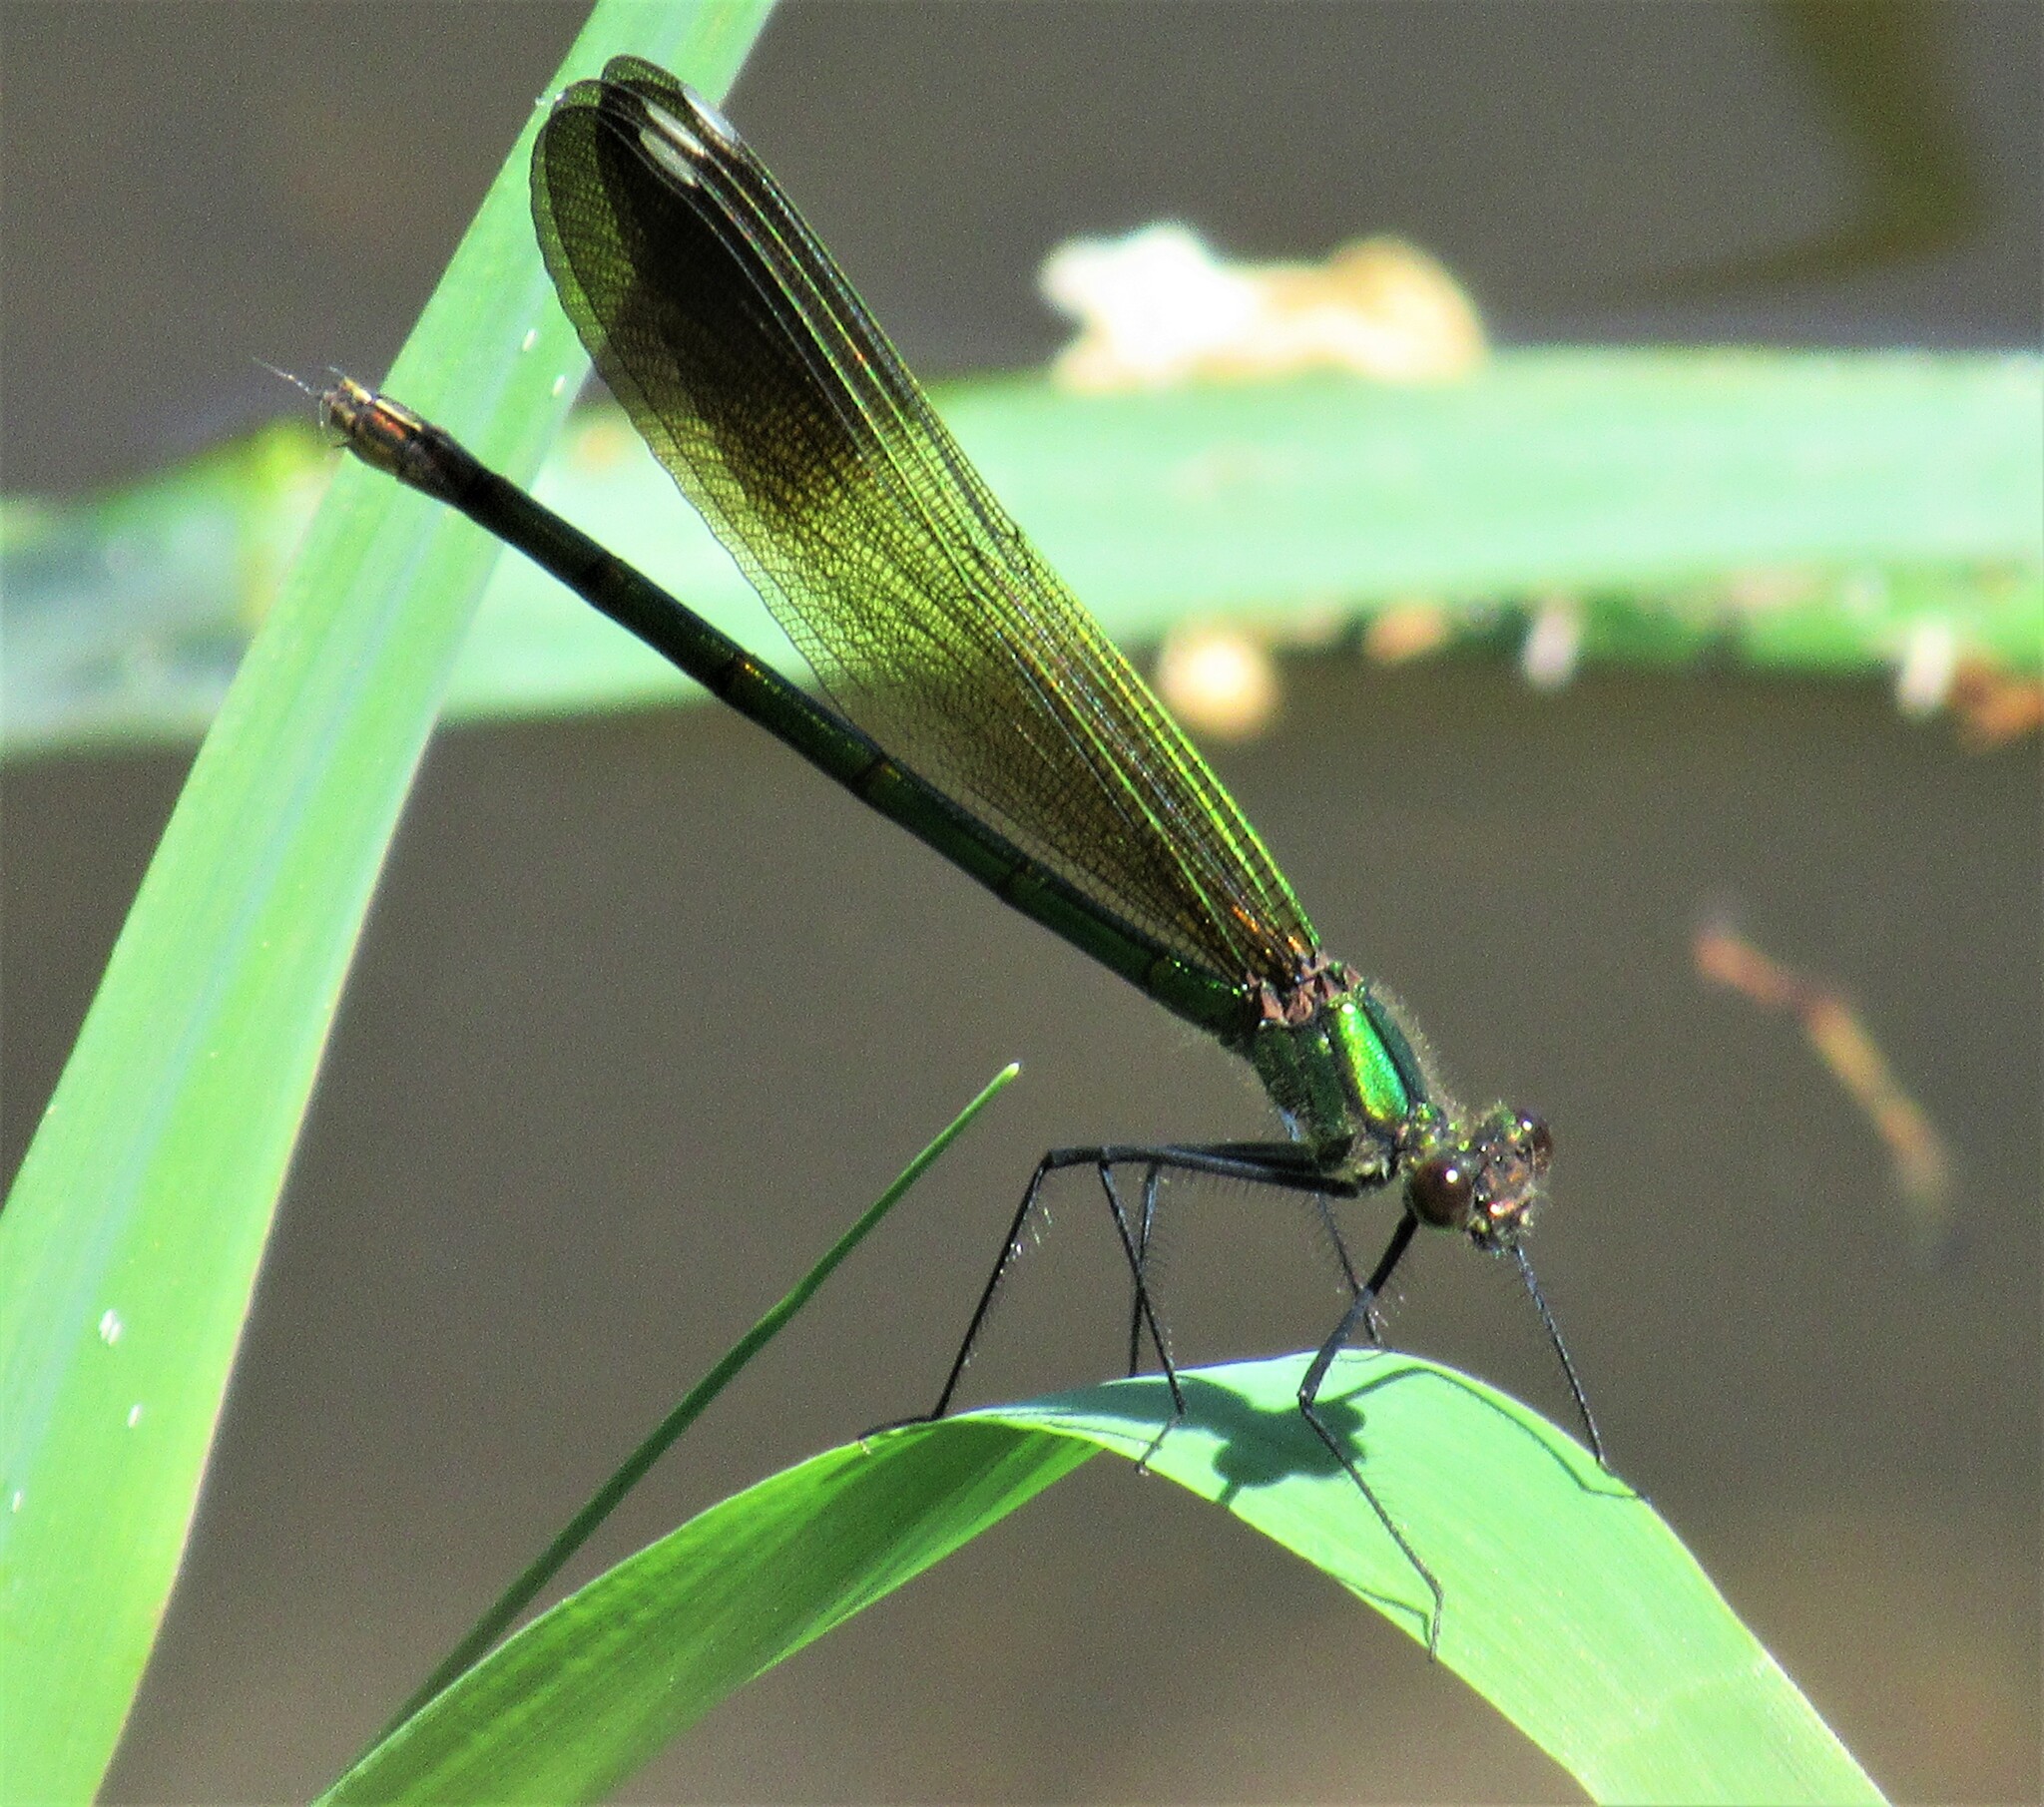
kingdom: Animalia
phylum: Arthropoda
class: Insecta
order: Odonata
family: Calopterygidae
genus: Calopteryx
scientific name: Calopteryx aequabilis
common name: River jewelwing
